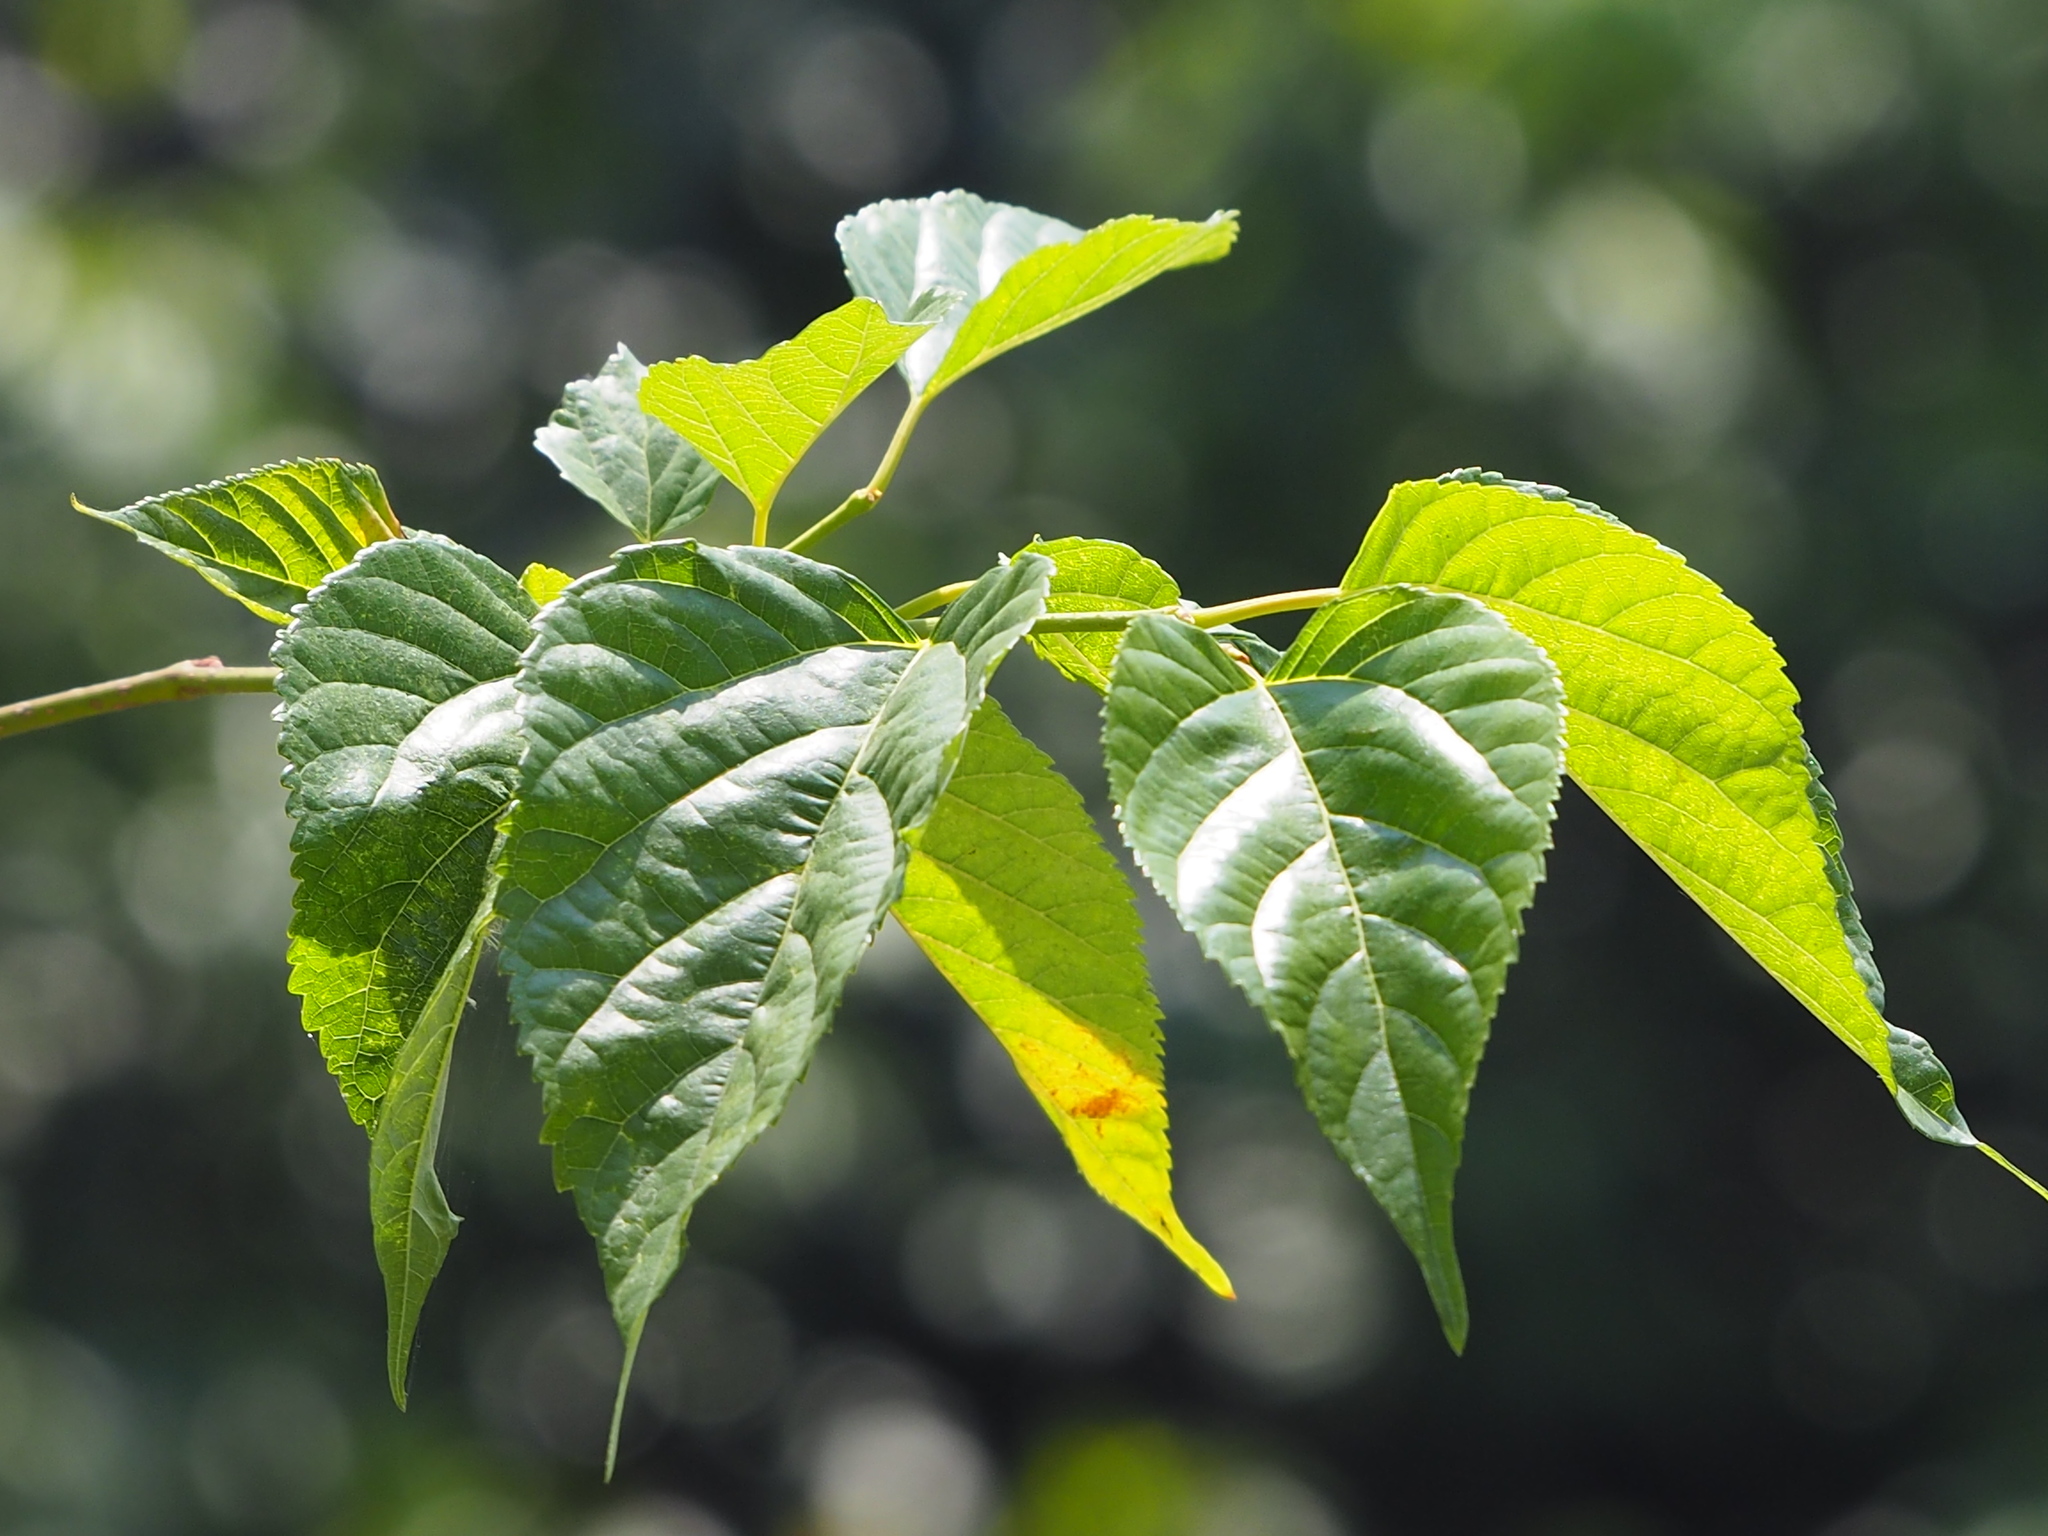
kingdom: Plantae
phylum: Tracheophyta
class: Magnoliopsida
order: Rosales
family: Moraceae
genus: Morus
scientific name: Morus indica
